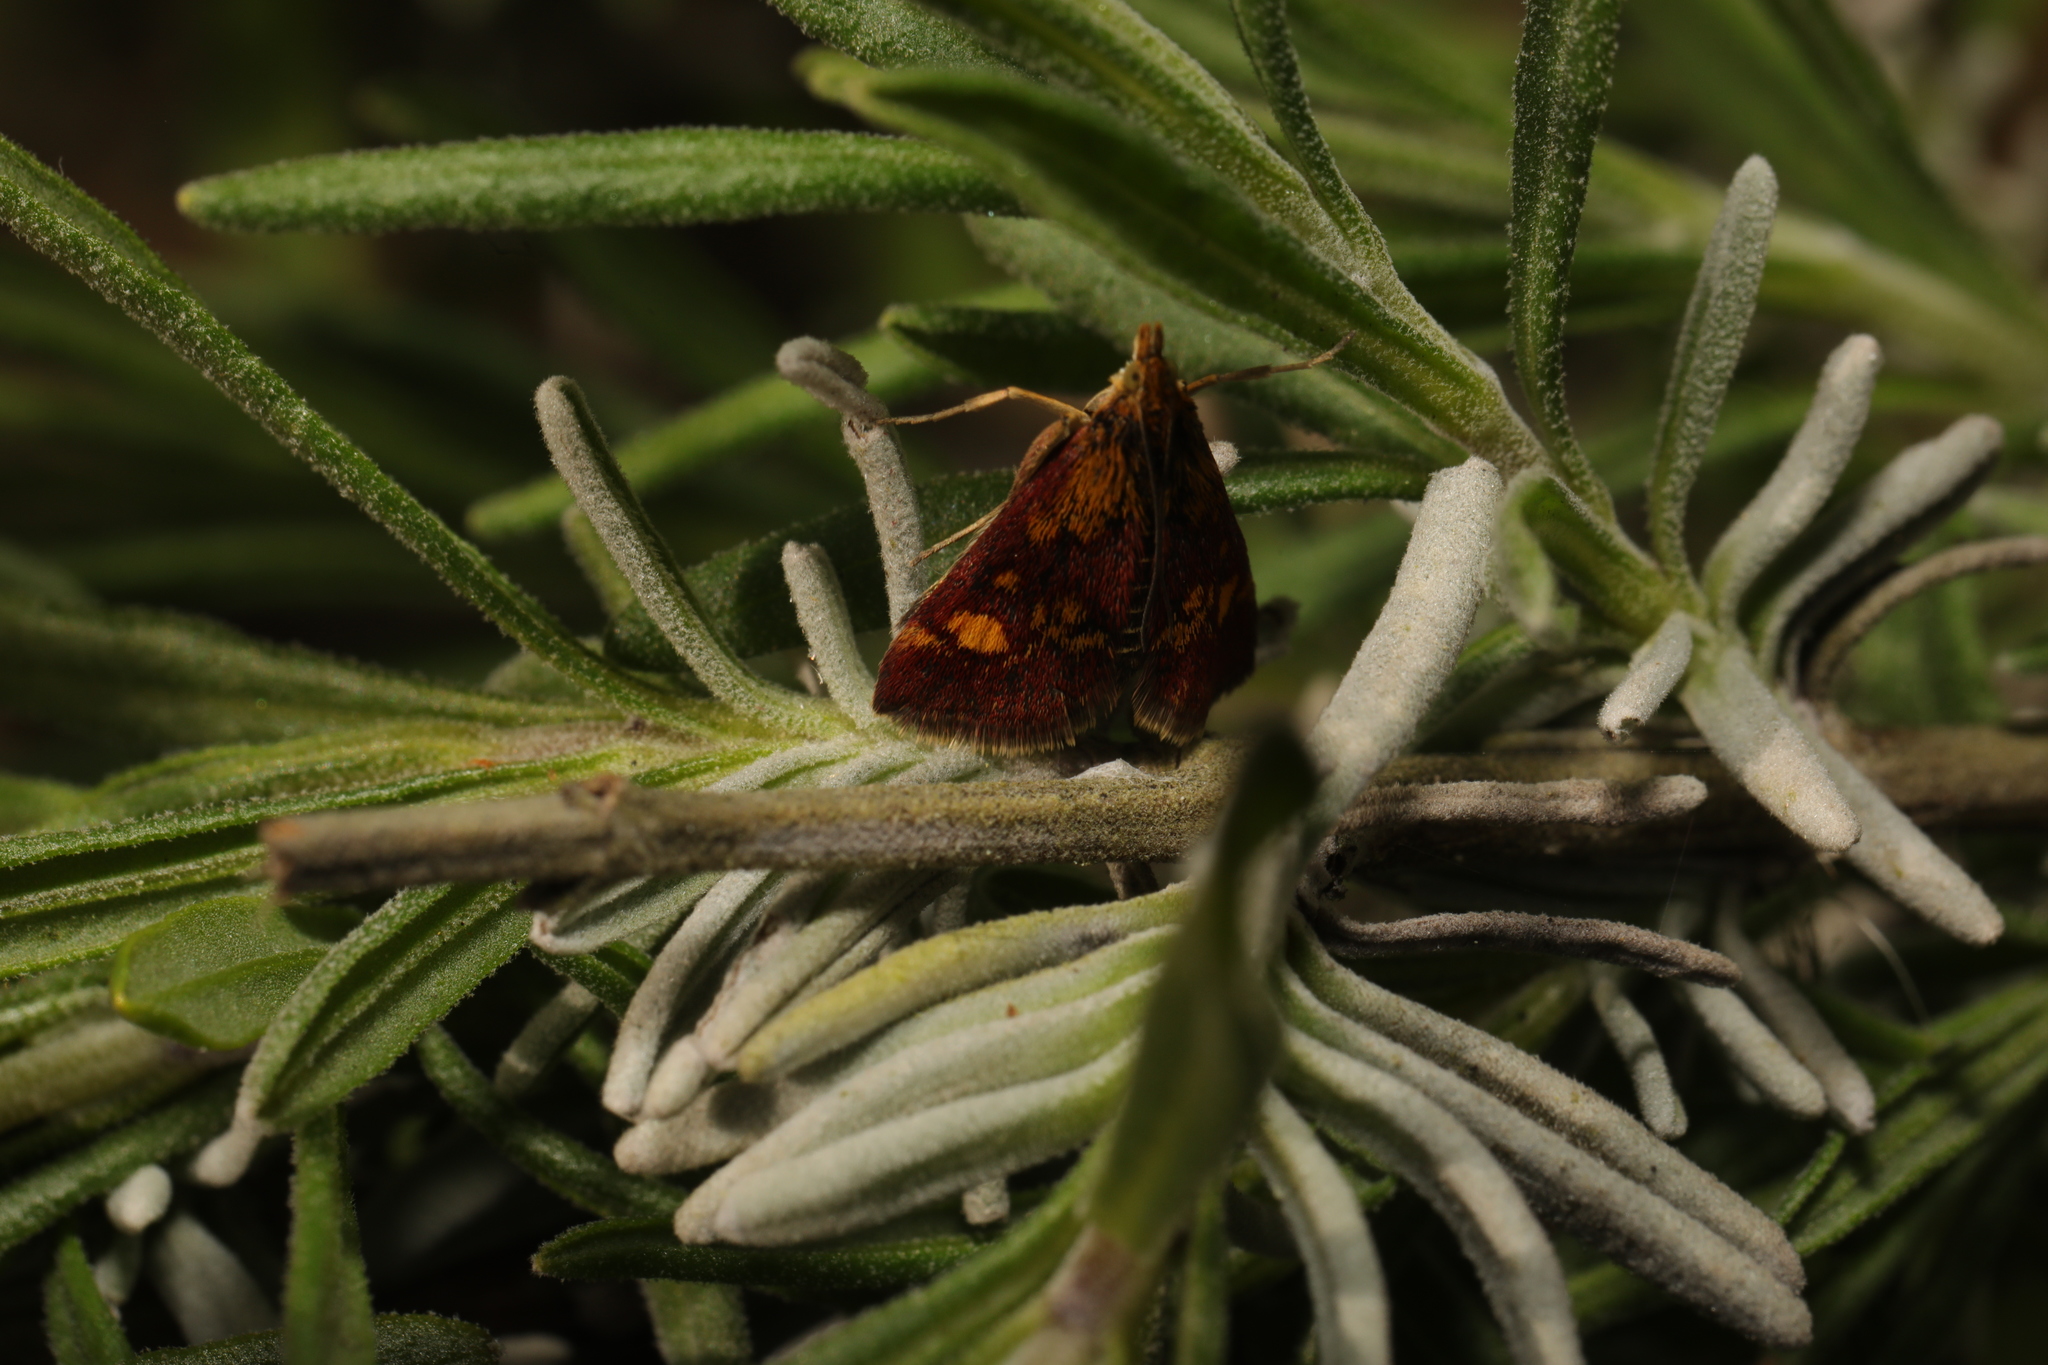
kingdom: Animalia
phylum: Arthropoda
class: Insecta
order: Lepidoptera
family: Crambidae
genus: Pyrausta
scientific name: Pyrausta aurata
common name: Small purple & gold
